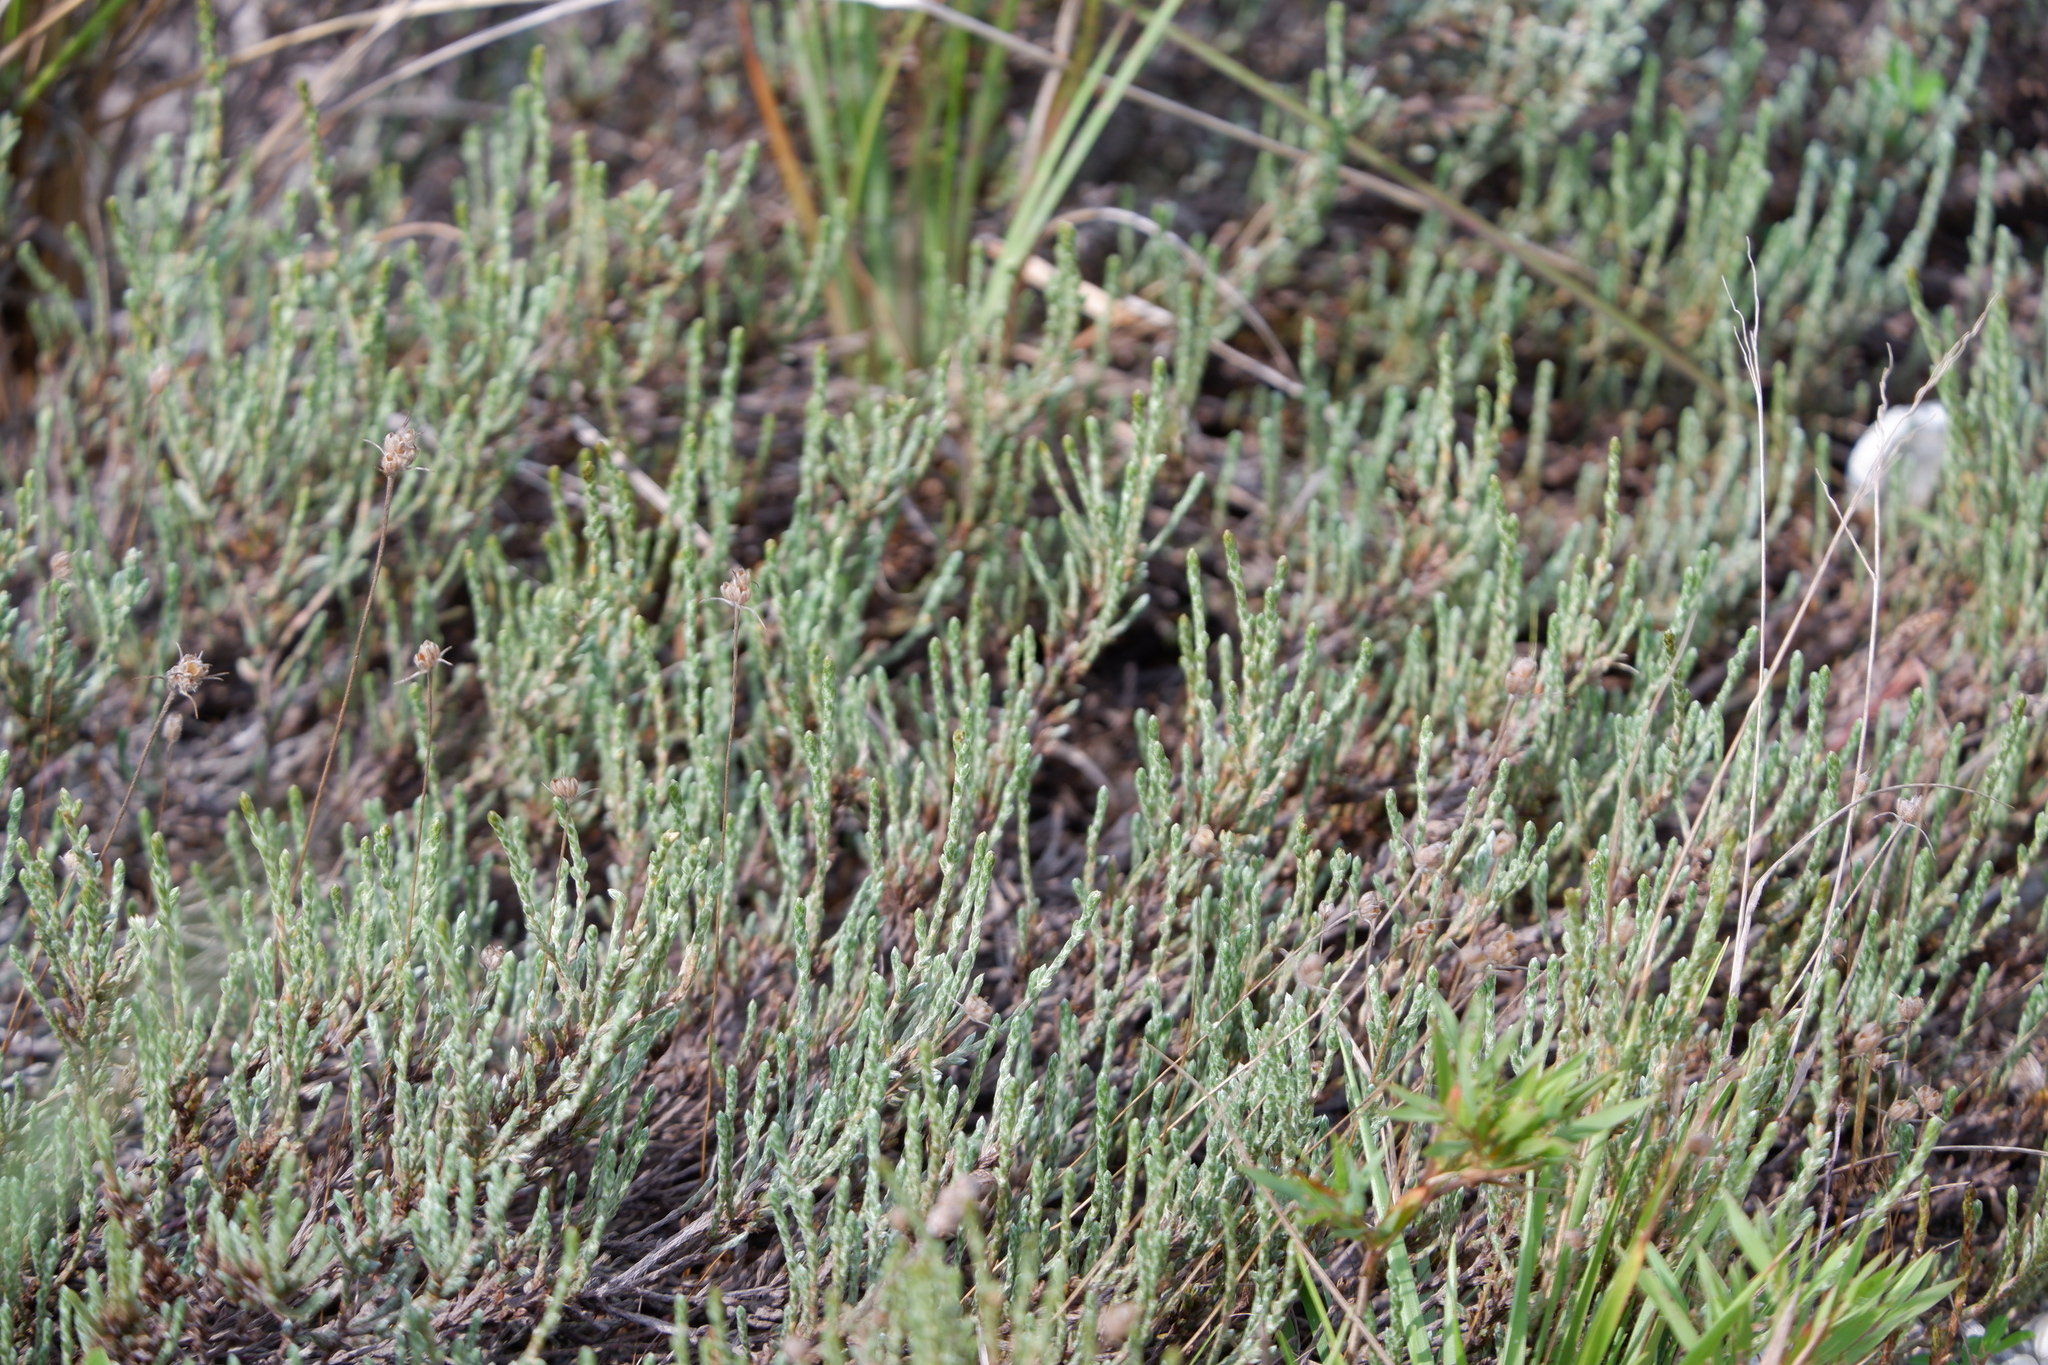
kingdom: Plantae
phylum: Tracheophyta
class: Magnoliopsida
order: Malvales
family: Cistaceae
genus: Hudsonia
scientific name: Hudsonia tomentosa
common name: Beach-heath
